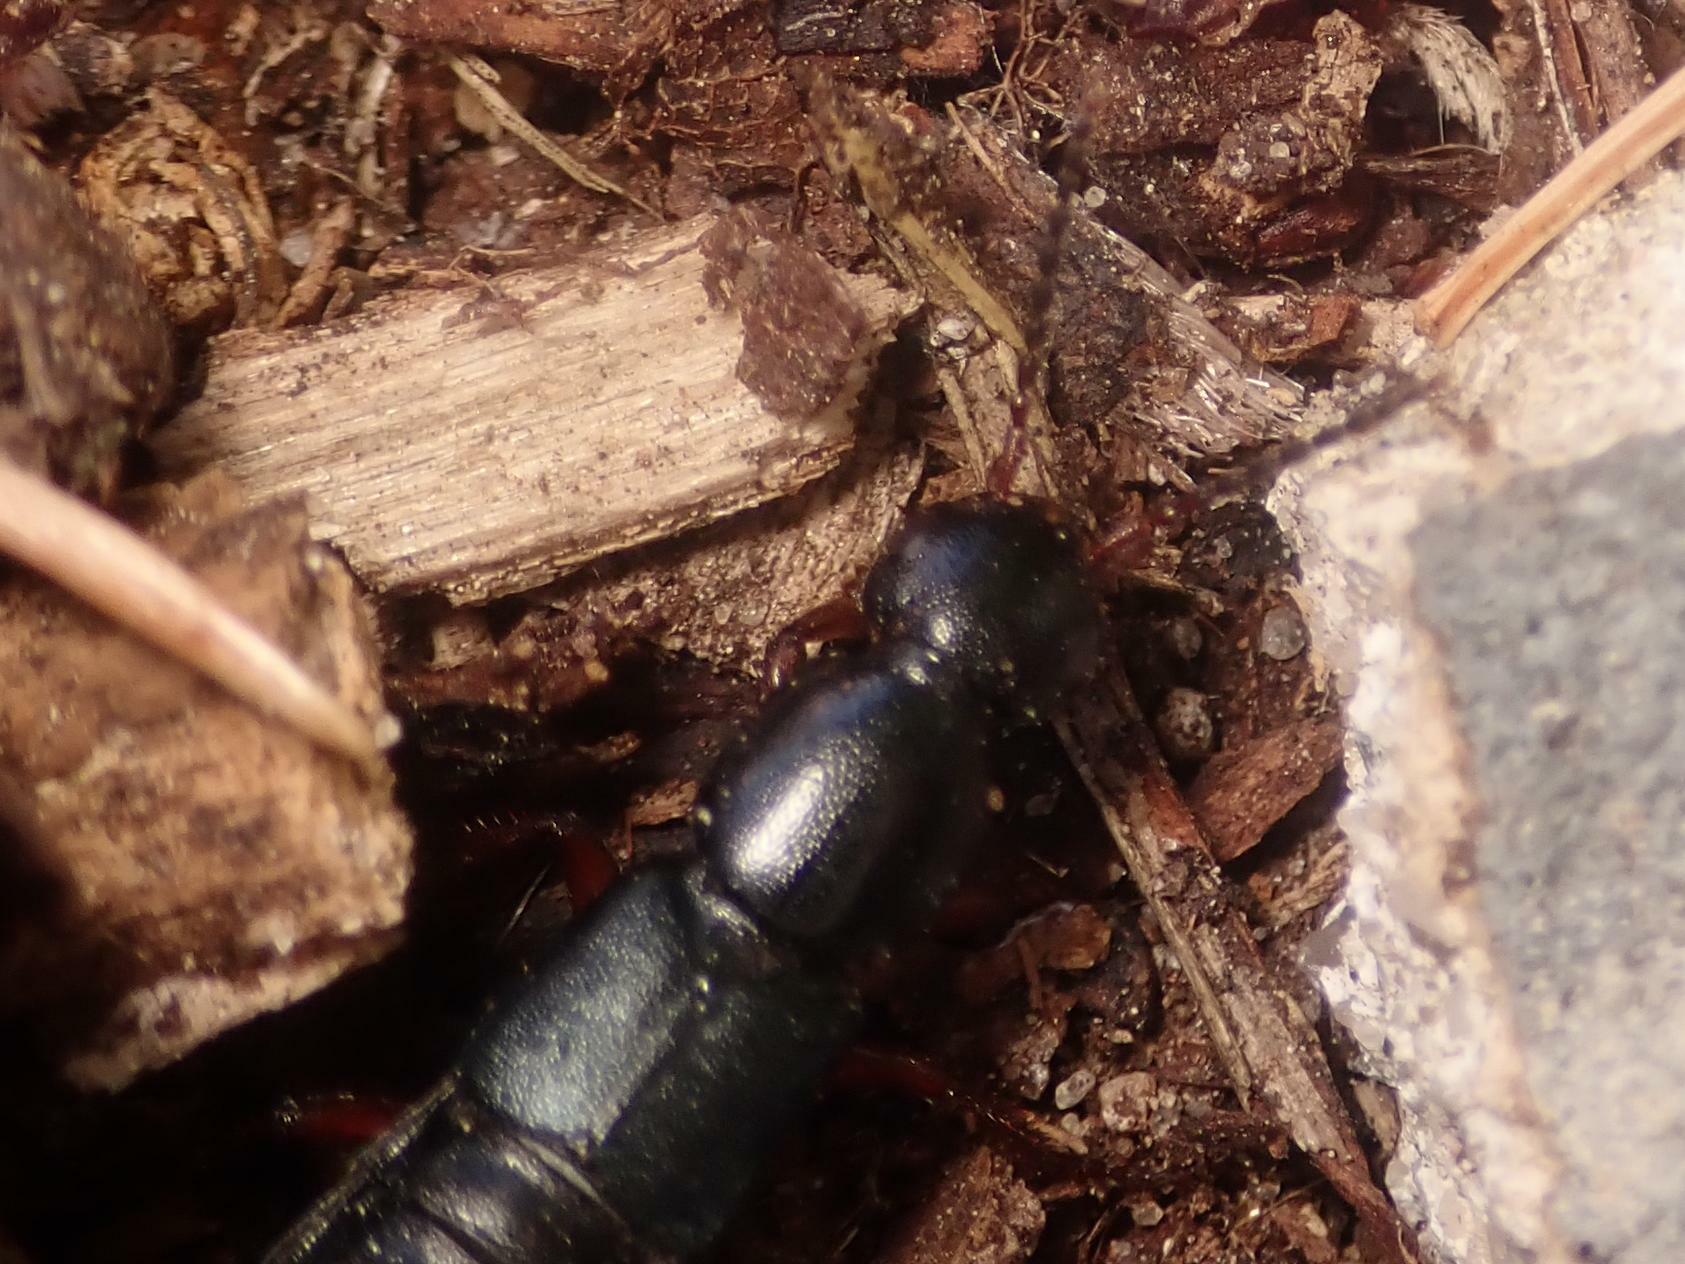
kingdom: Animalia
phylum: Arthropoda
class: Insecta
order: Coleoptera
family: Staphylinidae
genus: Ocypus
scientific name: Ocypus brunnipes
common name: Rove beetle
